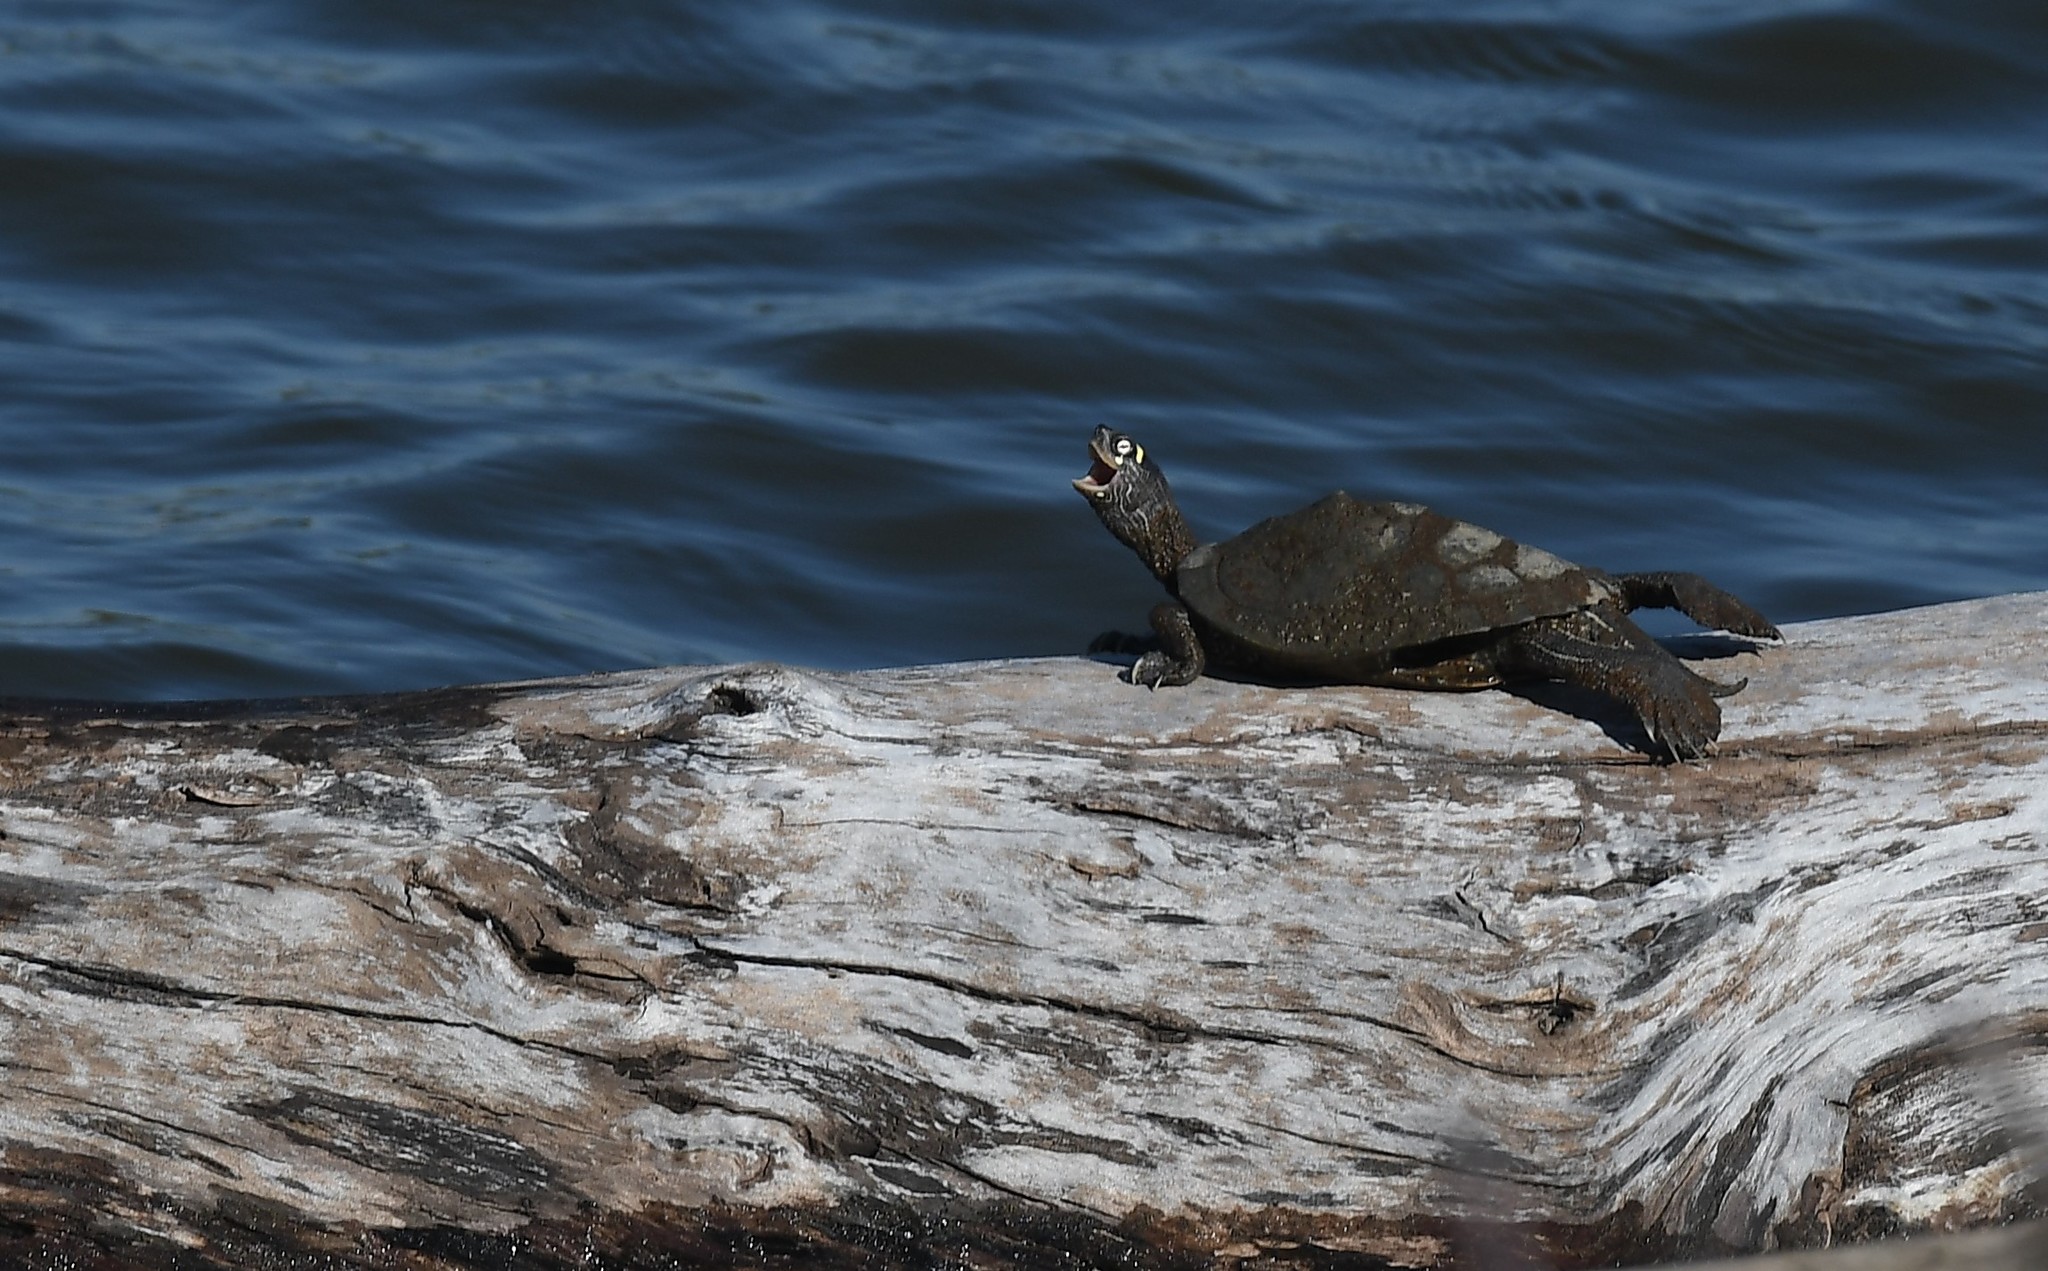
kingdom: Animalia
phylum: Chordata
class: Testudines
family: Emydidae
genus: Graptemys
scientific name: Graptemys ouachitensis
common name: Ouachita map turtle
